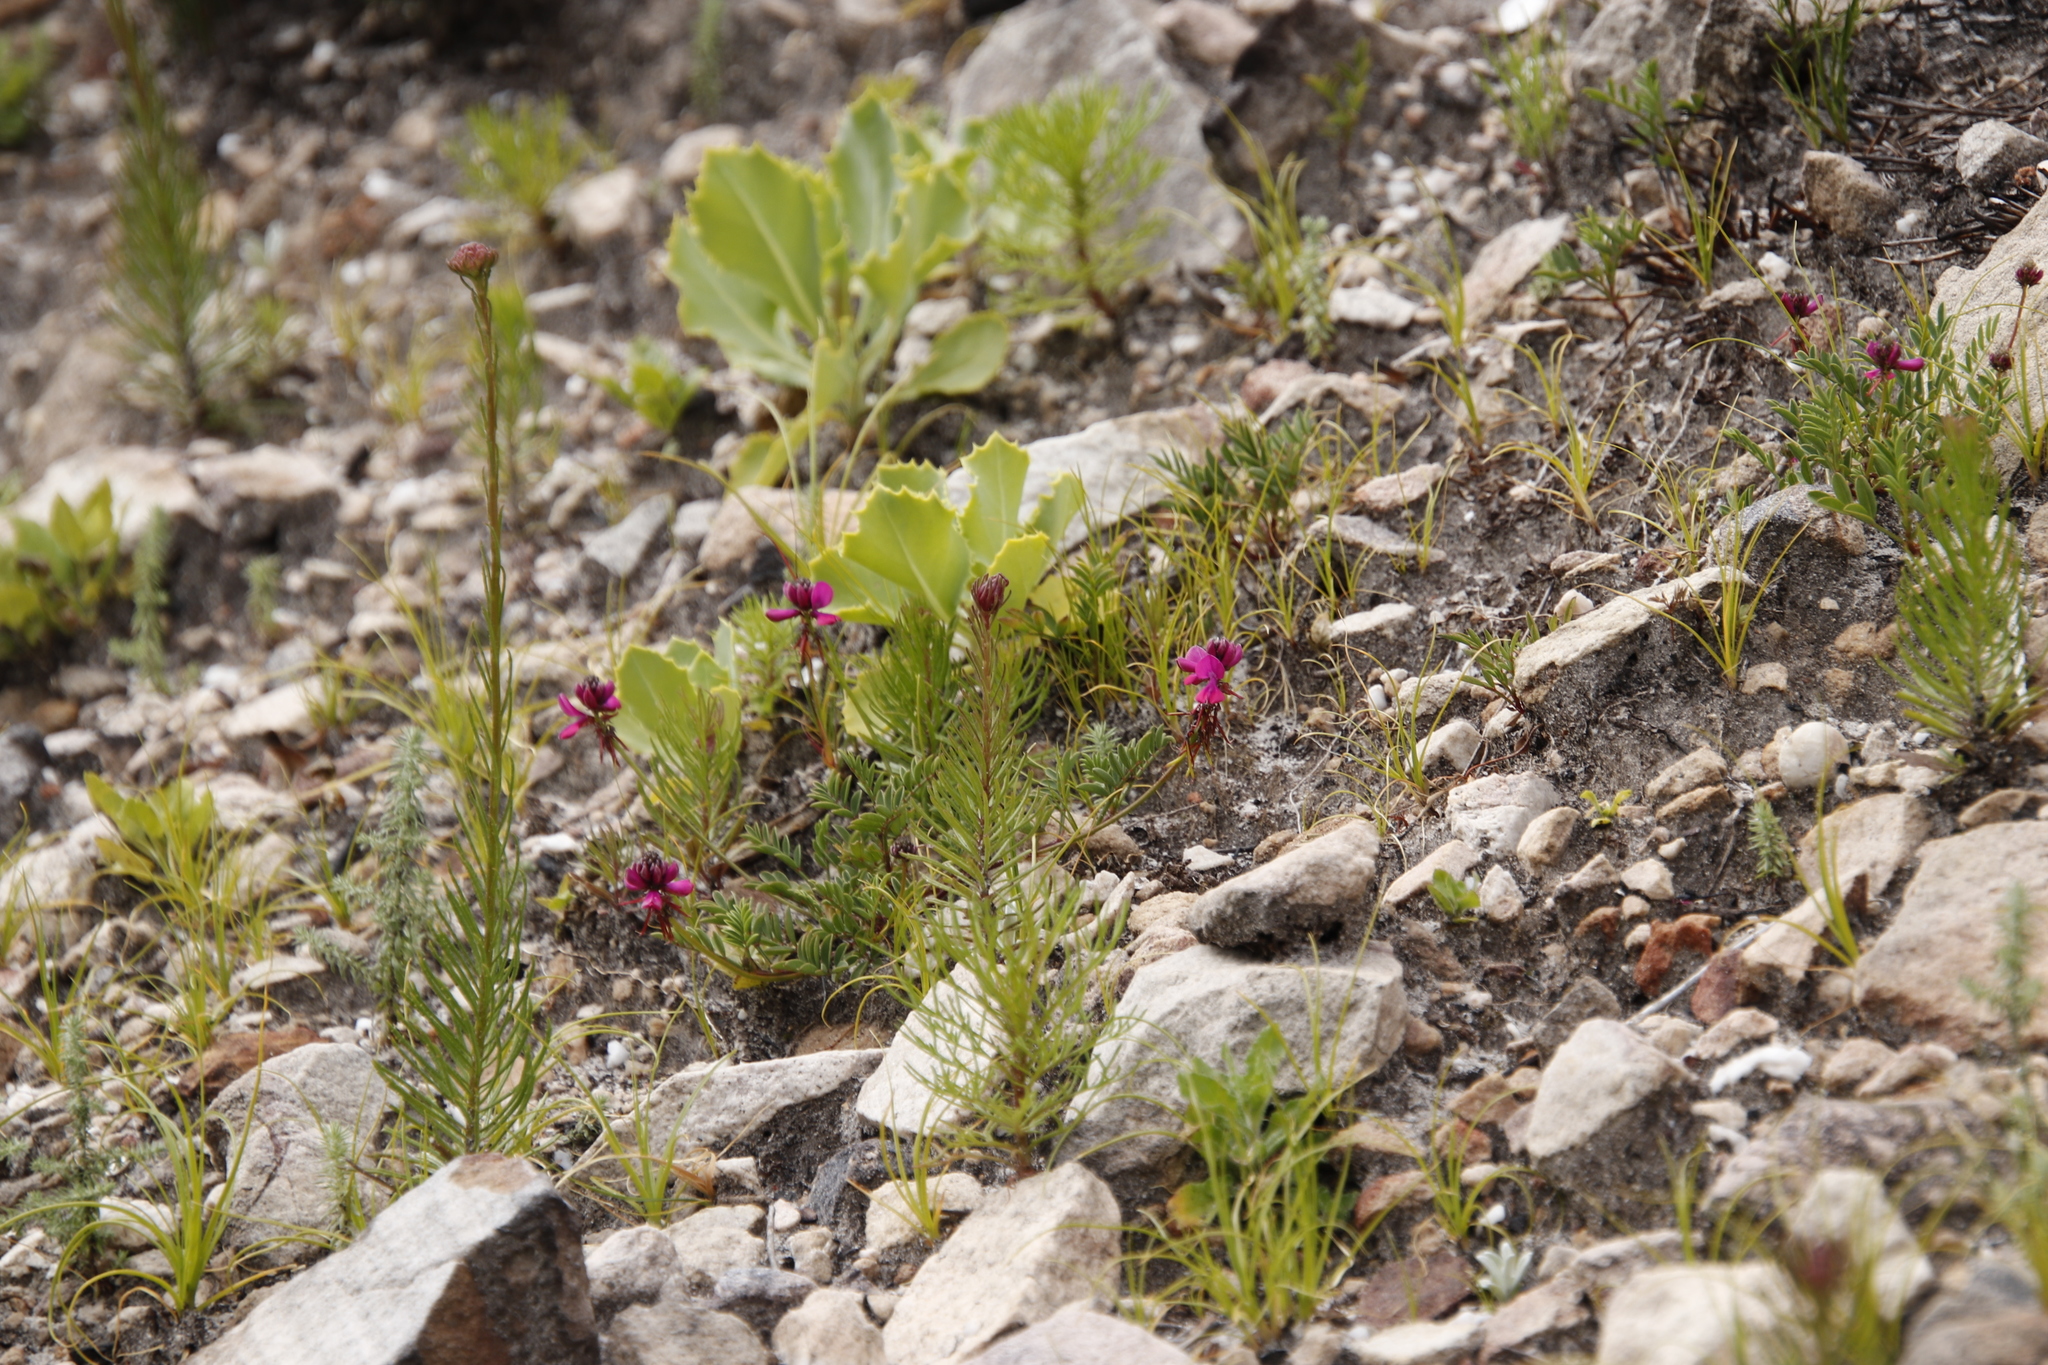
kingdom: Plantae
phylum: Tracheophyta
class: Magnoliopsida
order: Fabales
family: Fabaceae
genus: Indigofera
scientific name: Indigofera capillaris
